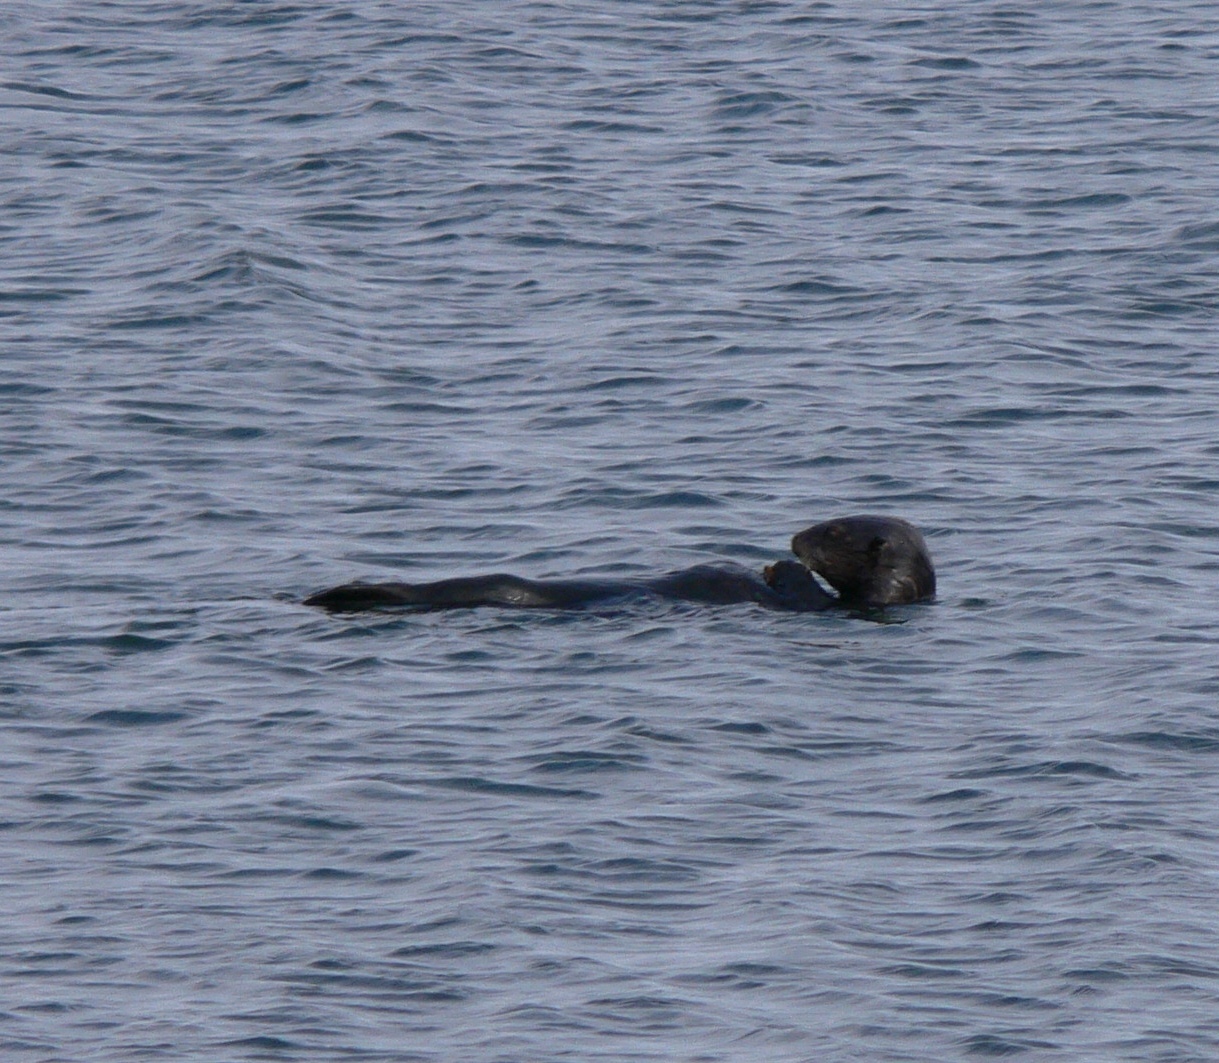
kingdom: Animalia
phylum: Chordata
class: Mammalia
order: Carnivora
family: Mustelidae
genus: Enhydra
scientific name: Enhydra lutris
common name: Sea otter
